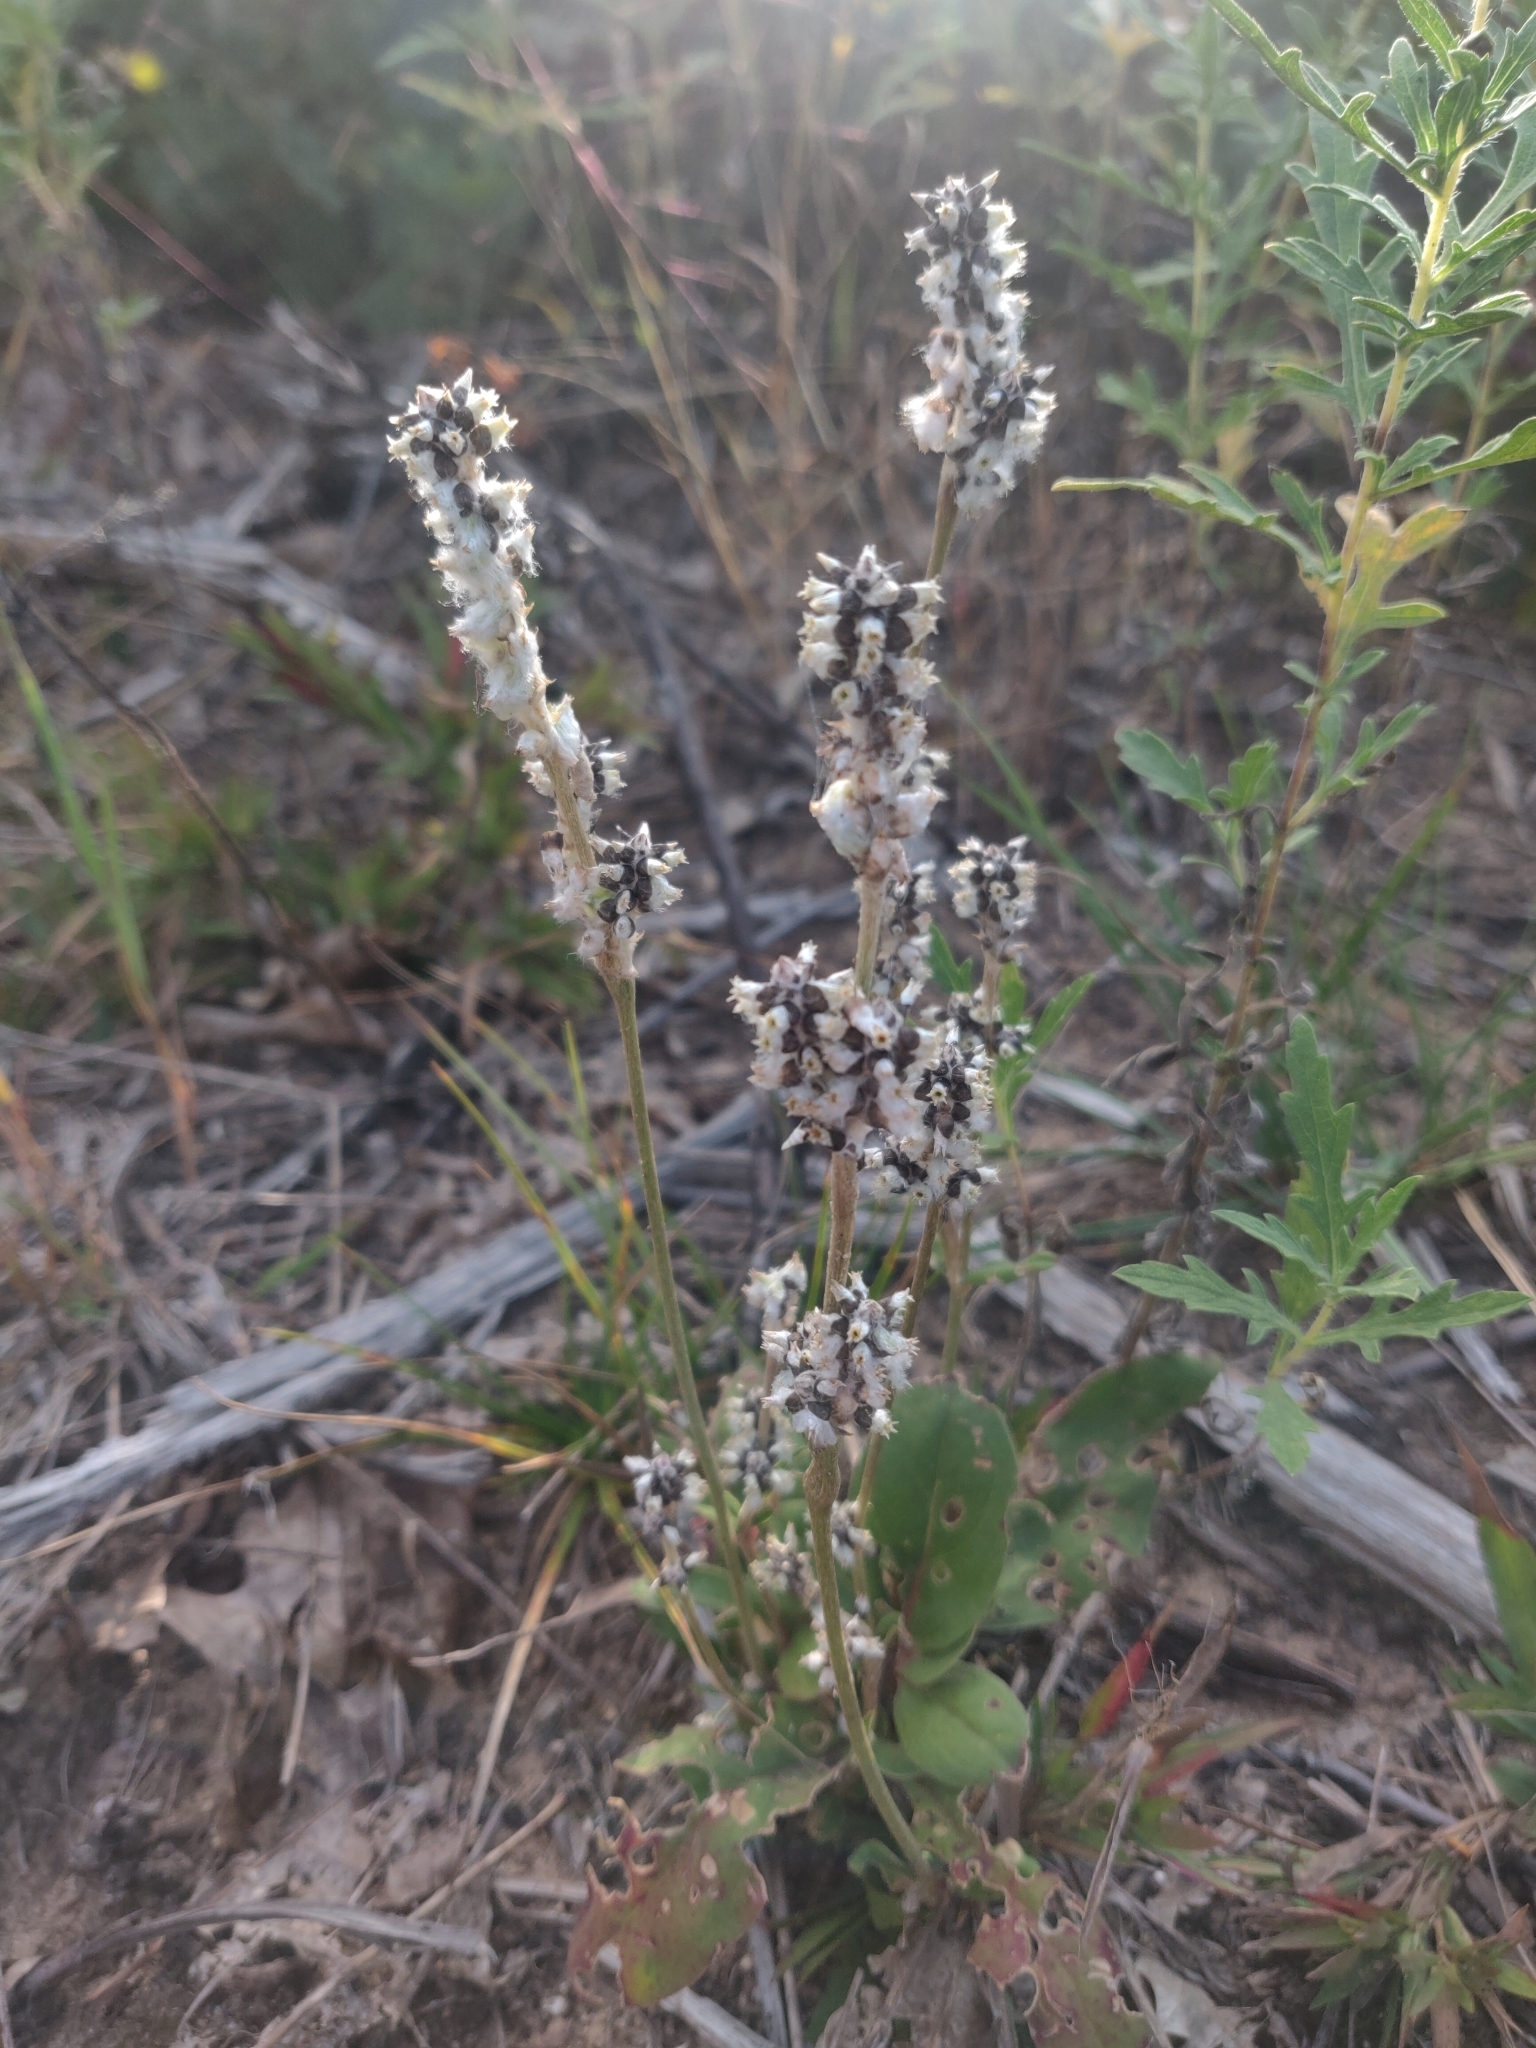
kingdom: Plantae
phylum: Tracheophyta
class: Magnoliopsida
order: Caryophyllales
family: Amaranthaceae
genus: Froelichia
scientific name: Froelichia floridana
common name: Florida snake-cotton
